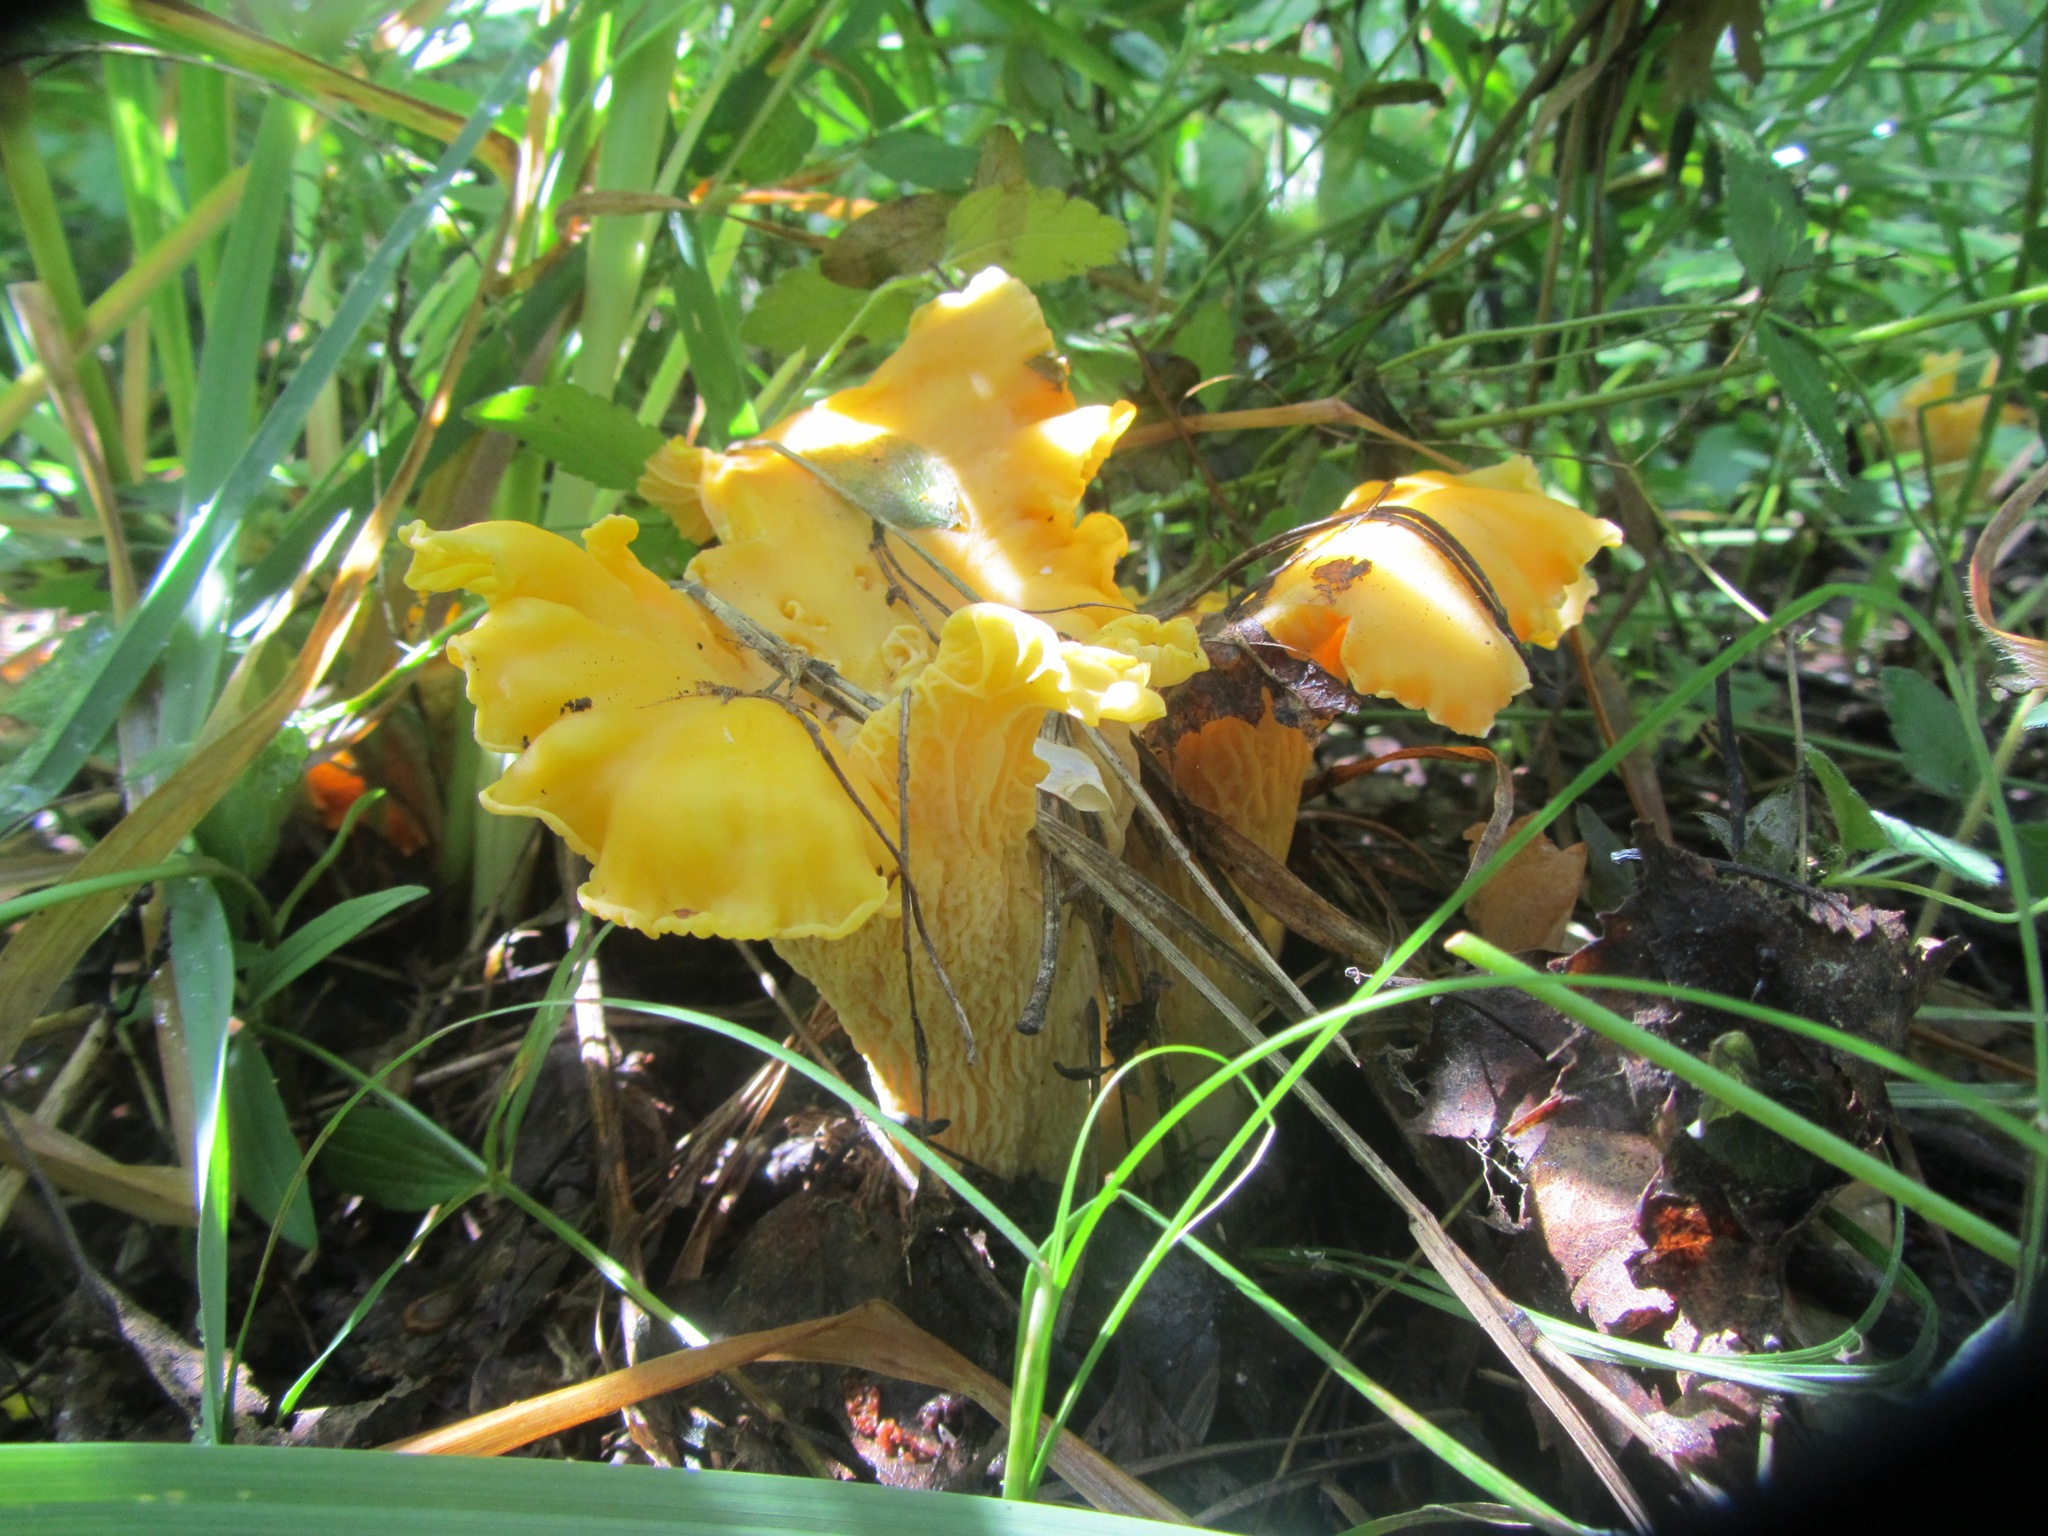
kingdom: Fungi
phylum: Basidiomycota
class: Agaricomycetes
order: Cantharellales
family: Hydnaceae
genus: Cantharellus
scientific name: Cantharellus cibarius
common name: Chanterelle
